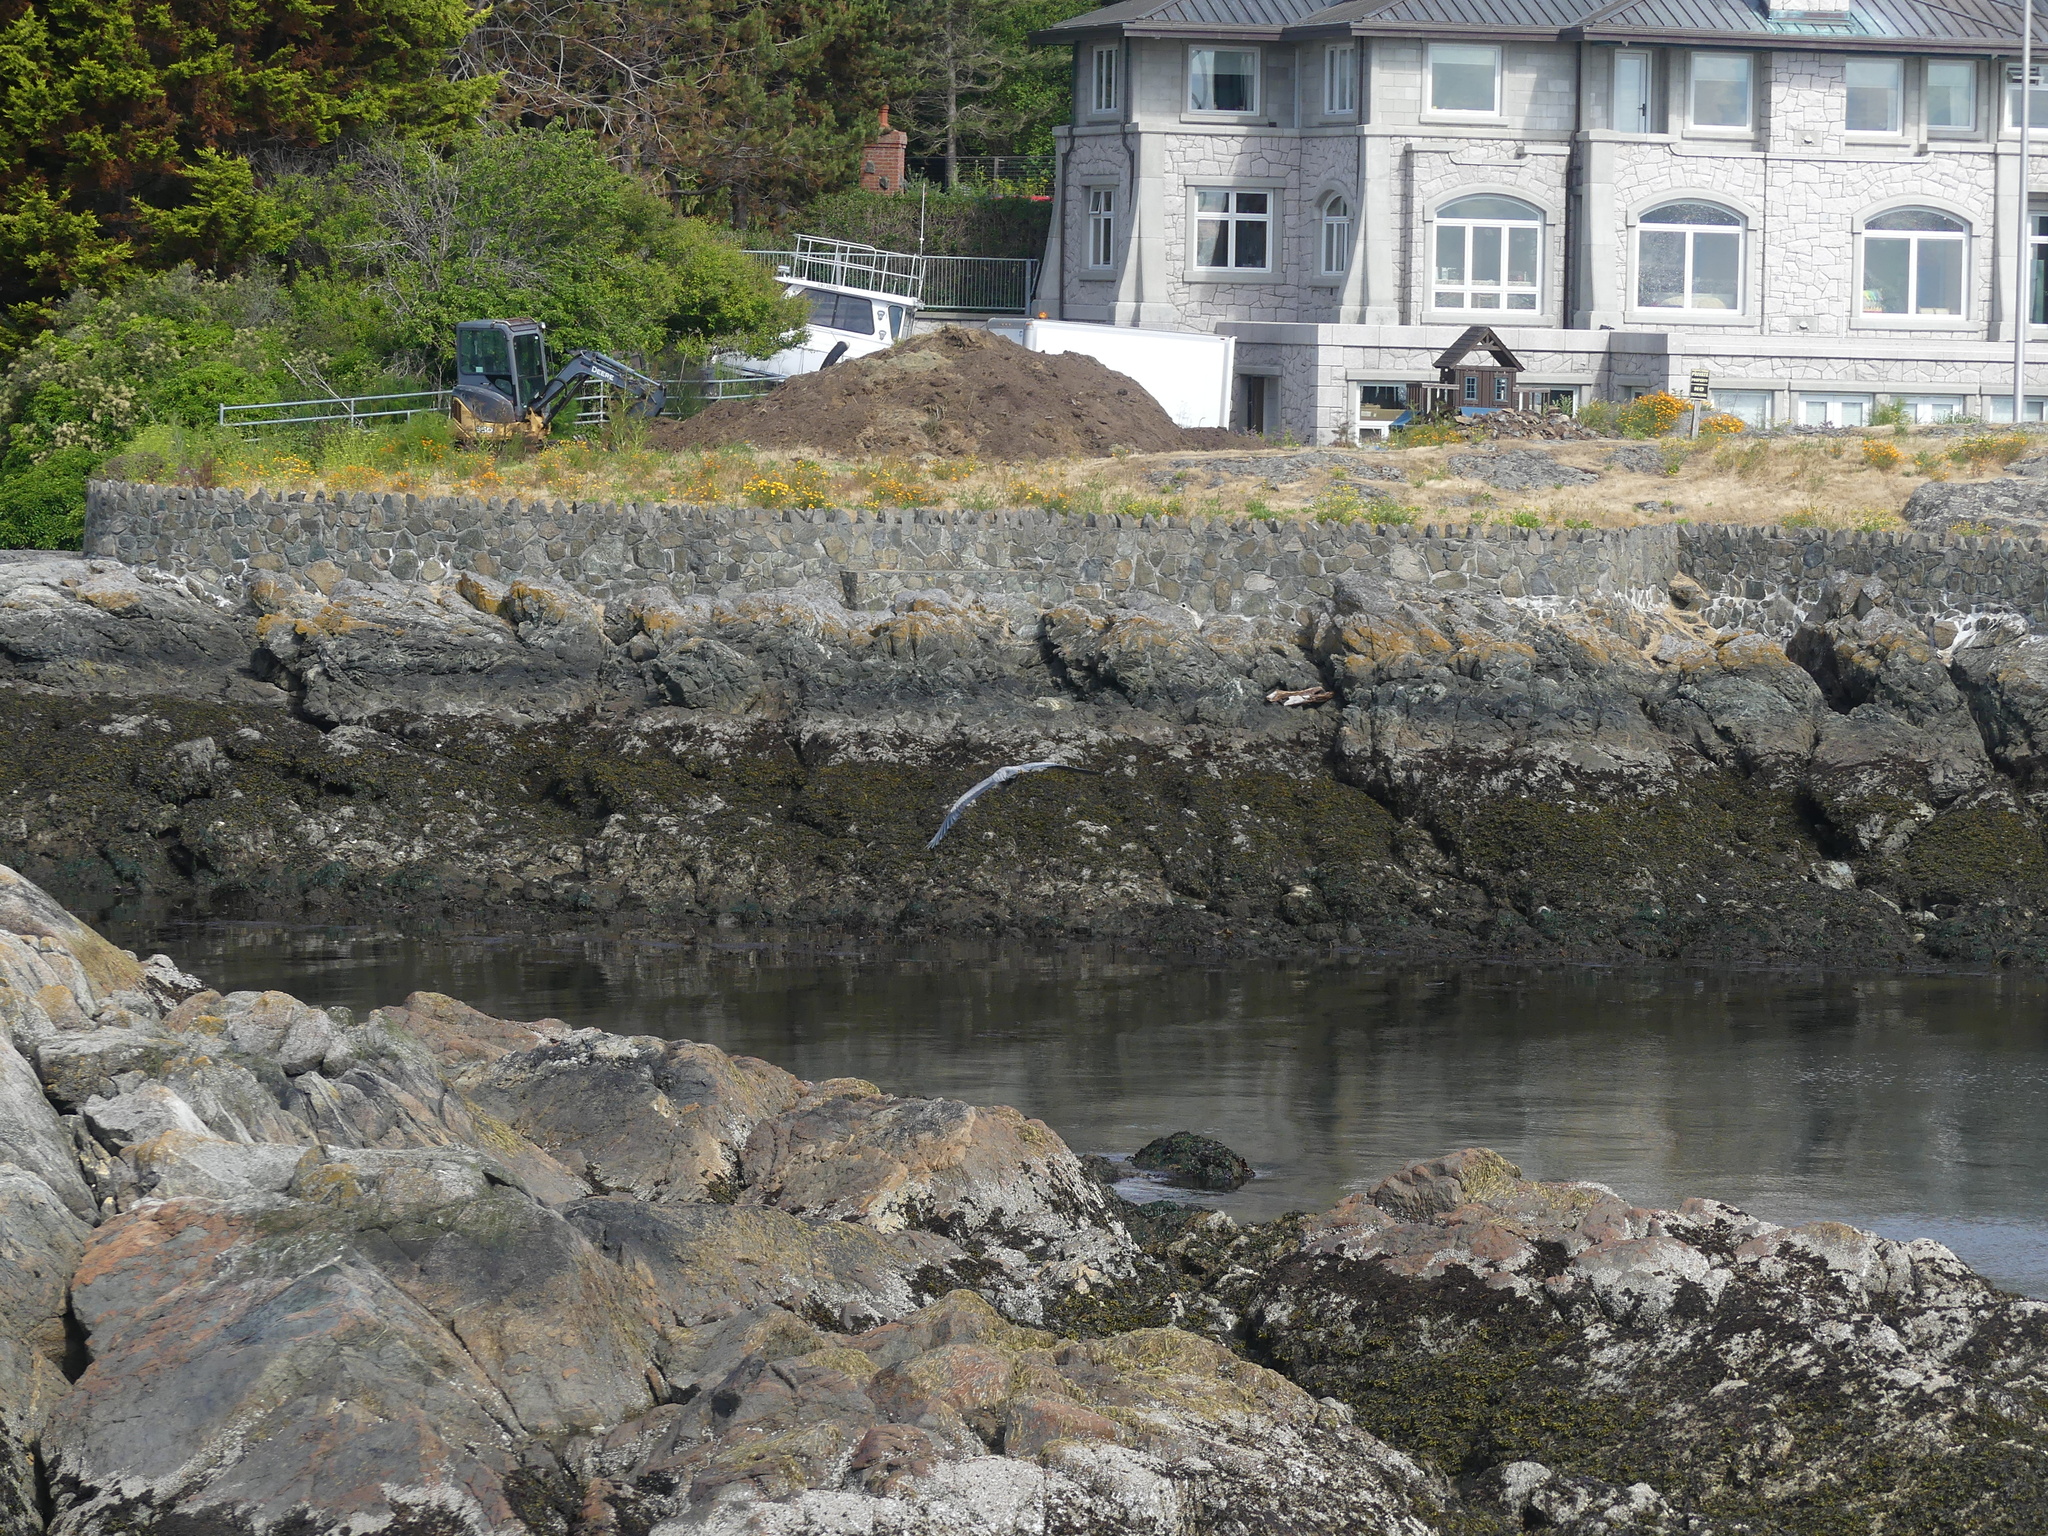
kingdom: Animalia
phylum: Chordata
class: Aves
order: Pelecaniformes
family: Ardeidae
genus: Ardea
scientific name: Ardea herodias
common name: Great blue heron
